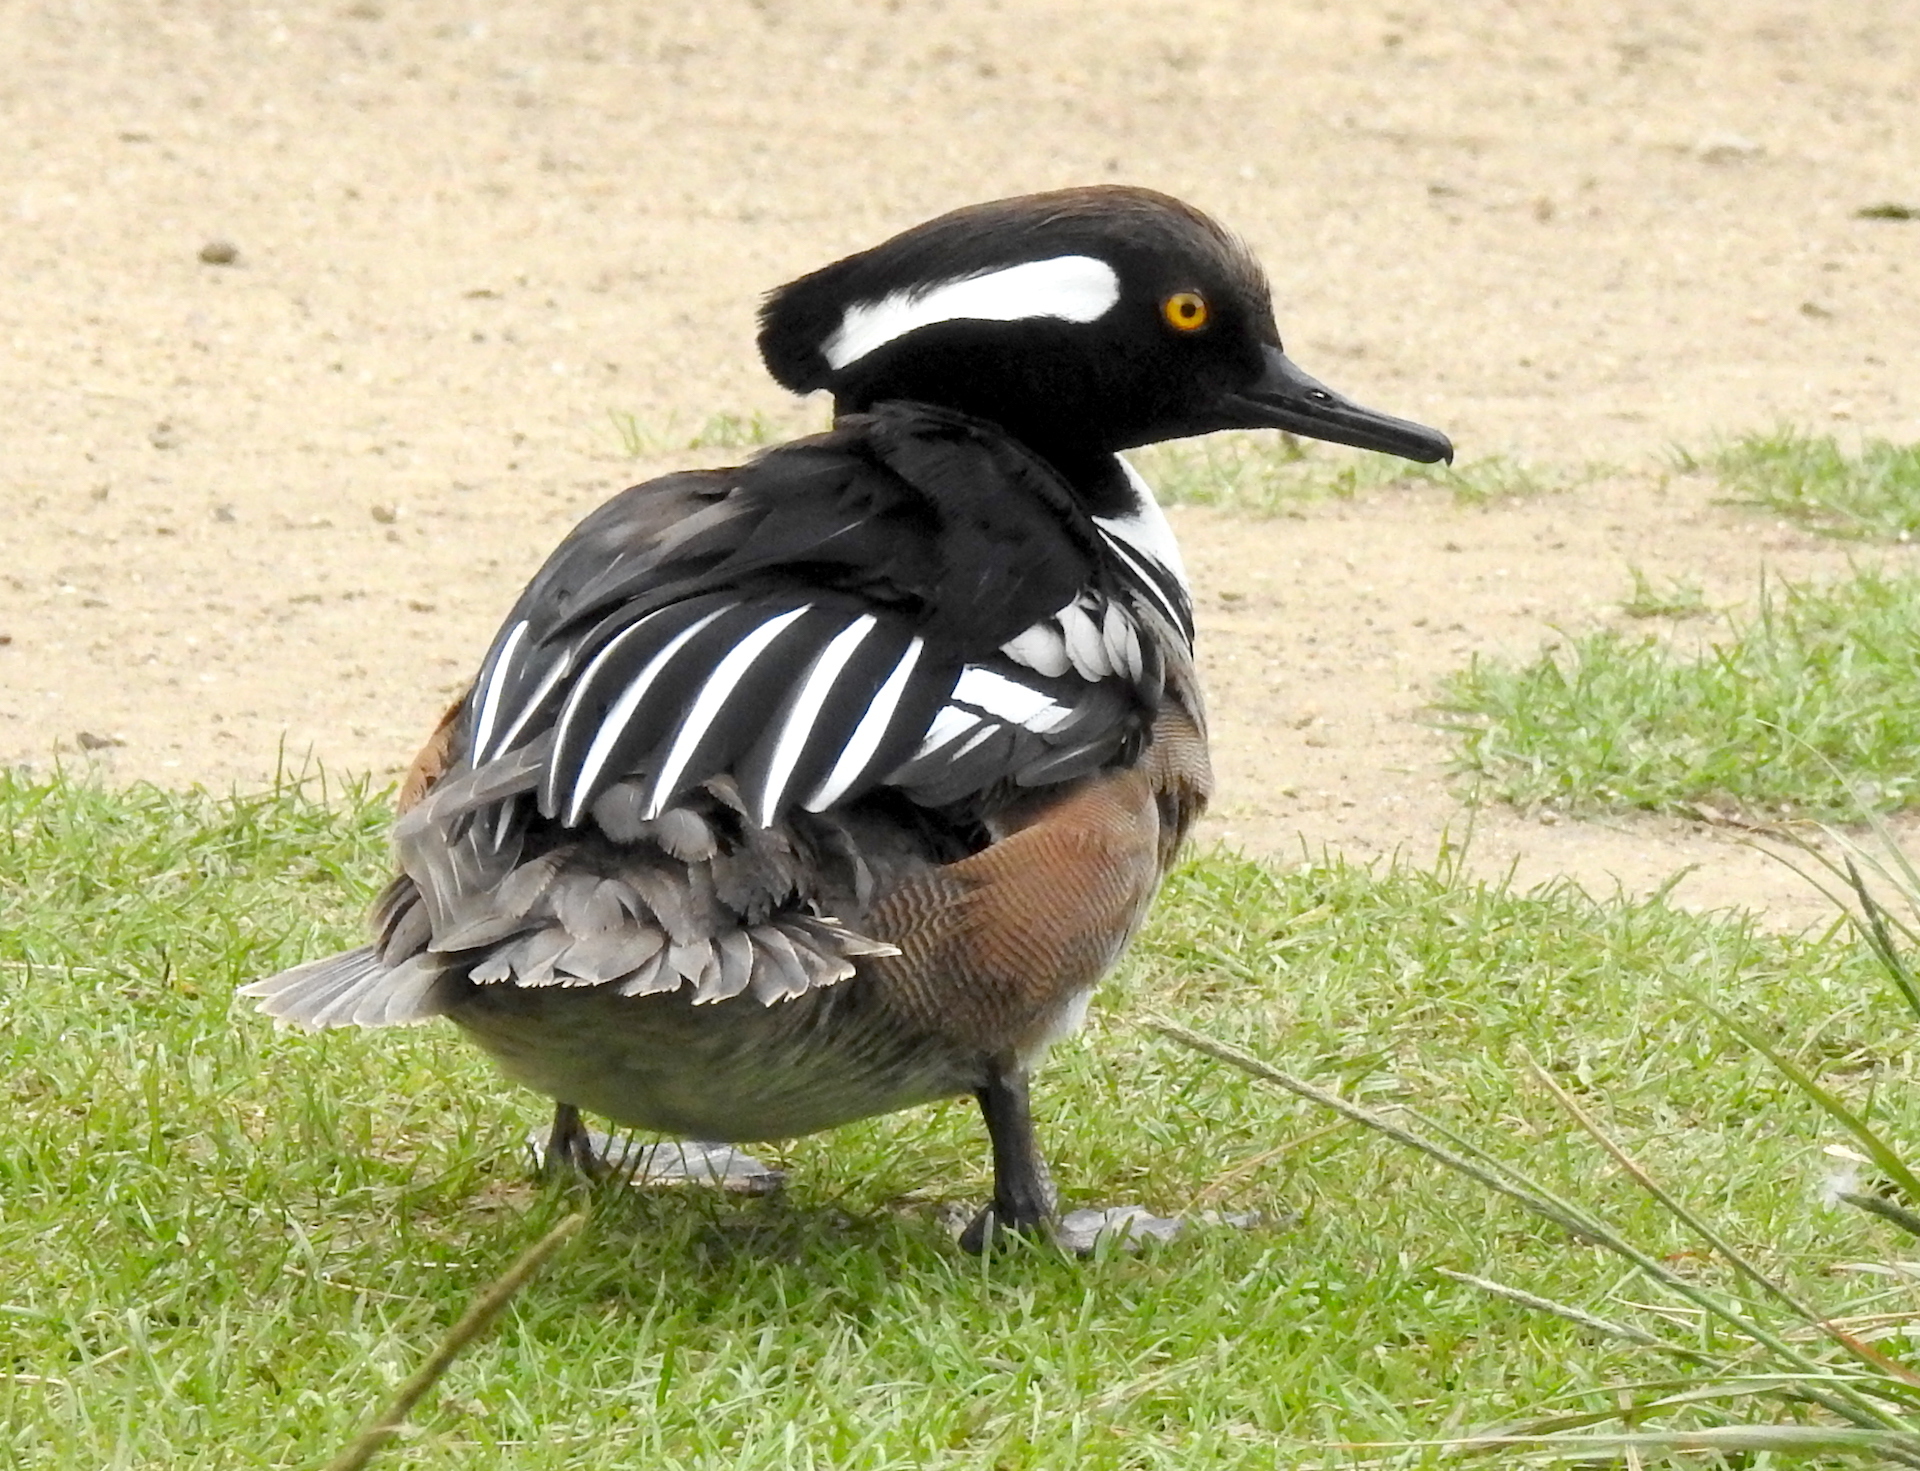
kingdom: Animalia
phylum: Chordata
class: Aves
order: Anseriformes
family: Anatidae
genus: Lophodytes
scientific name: Lophodytes cucullatus
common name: Hooded merganser
